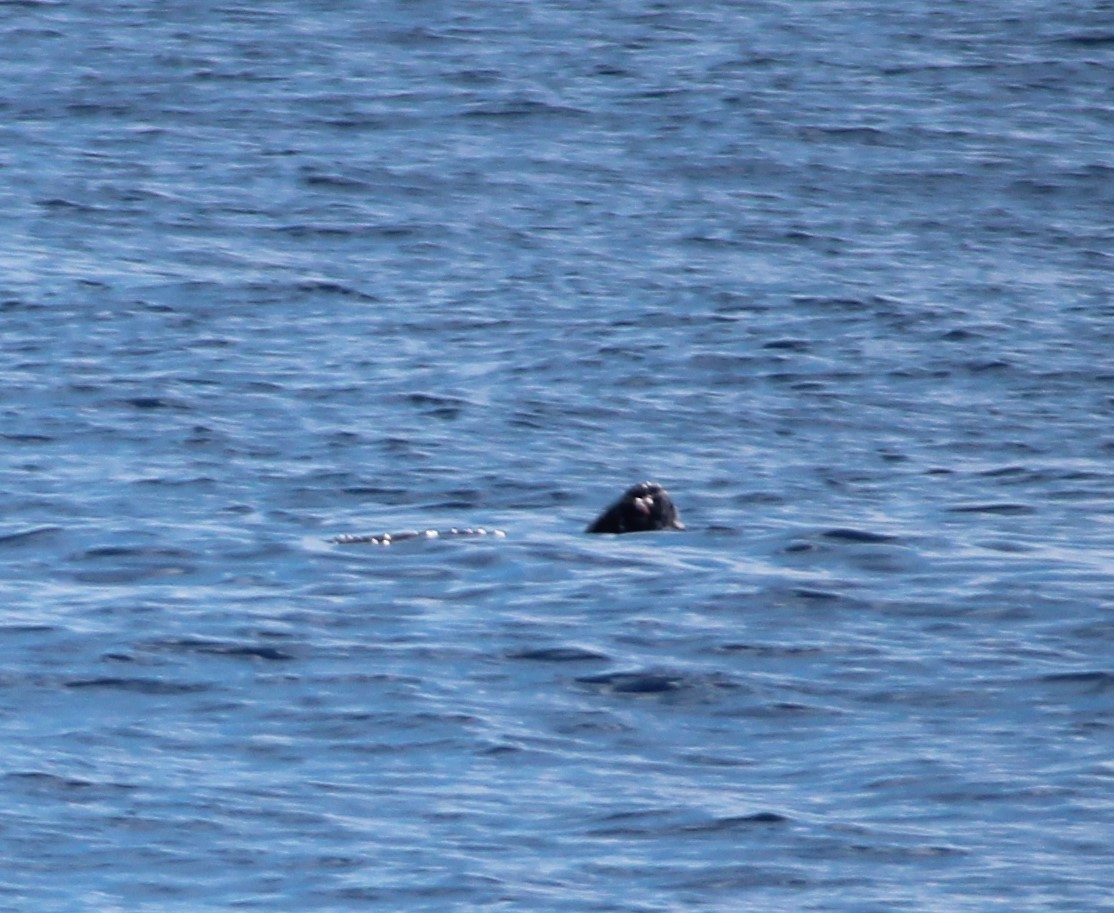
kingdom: Animalia
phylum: Chordata
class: Testudines
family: Dermochelyidae
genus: Dermochelys
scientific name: Dermochelys coriacea
